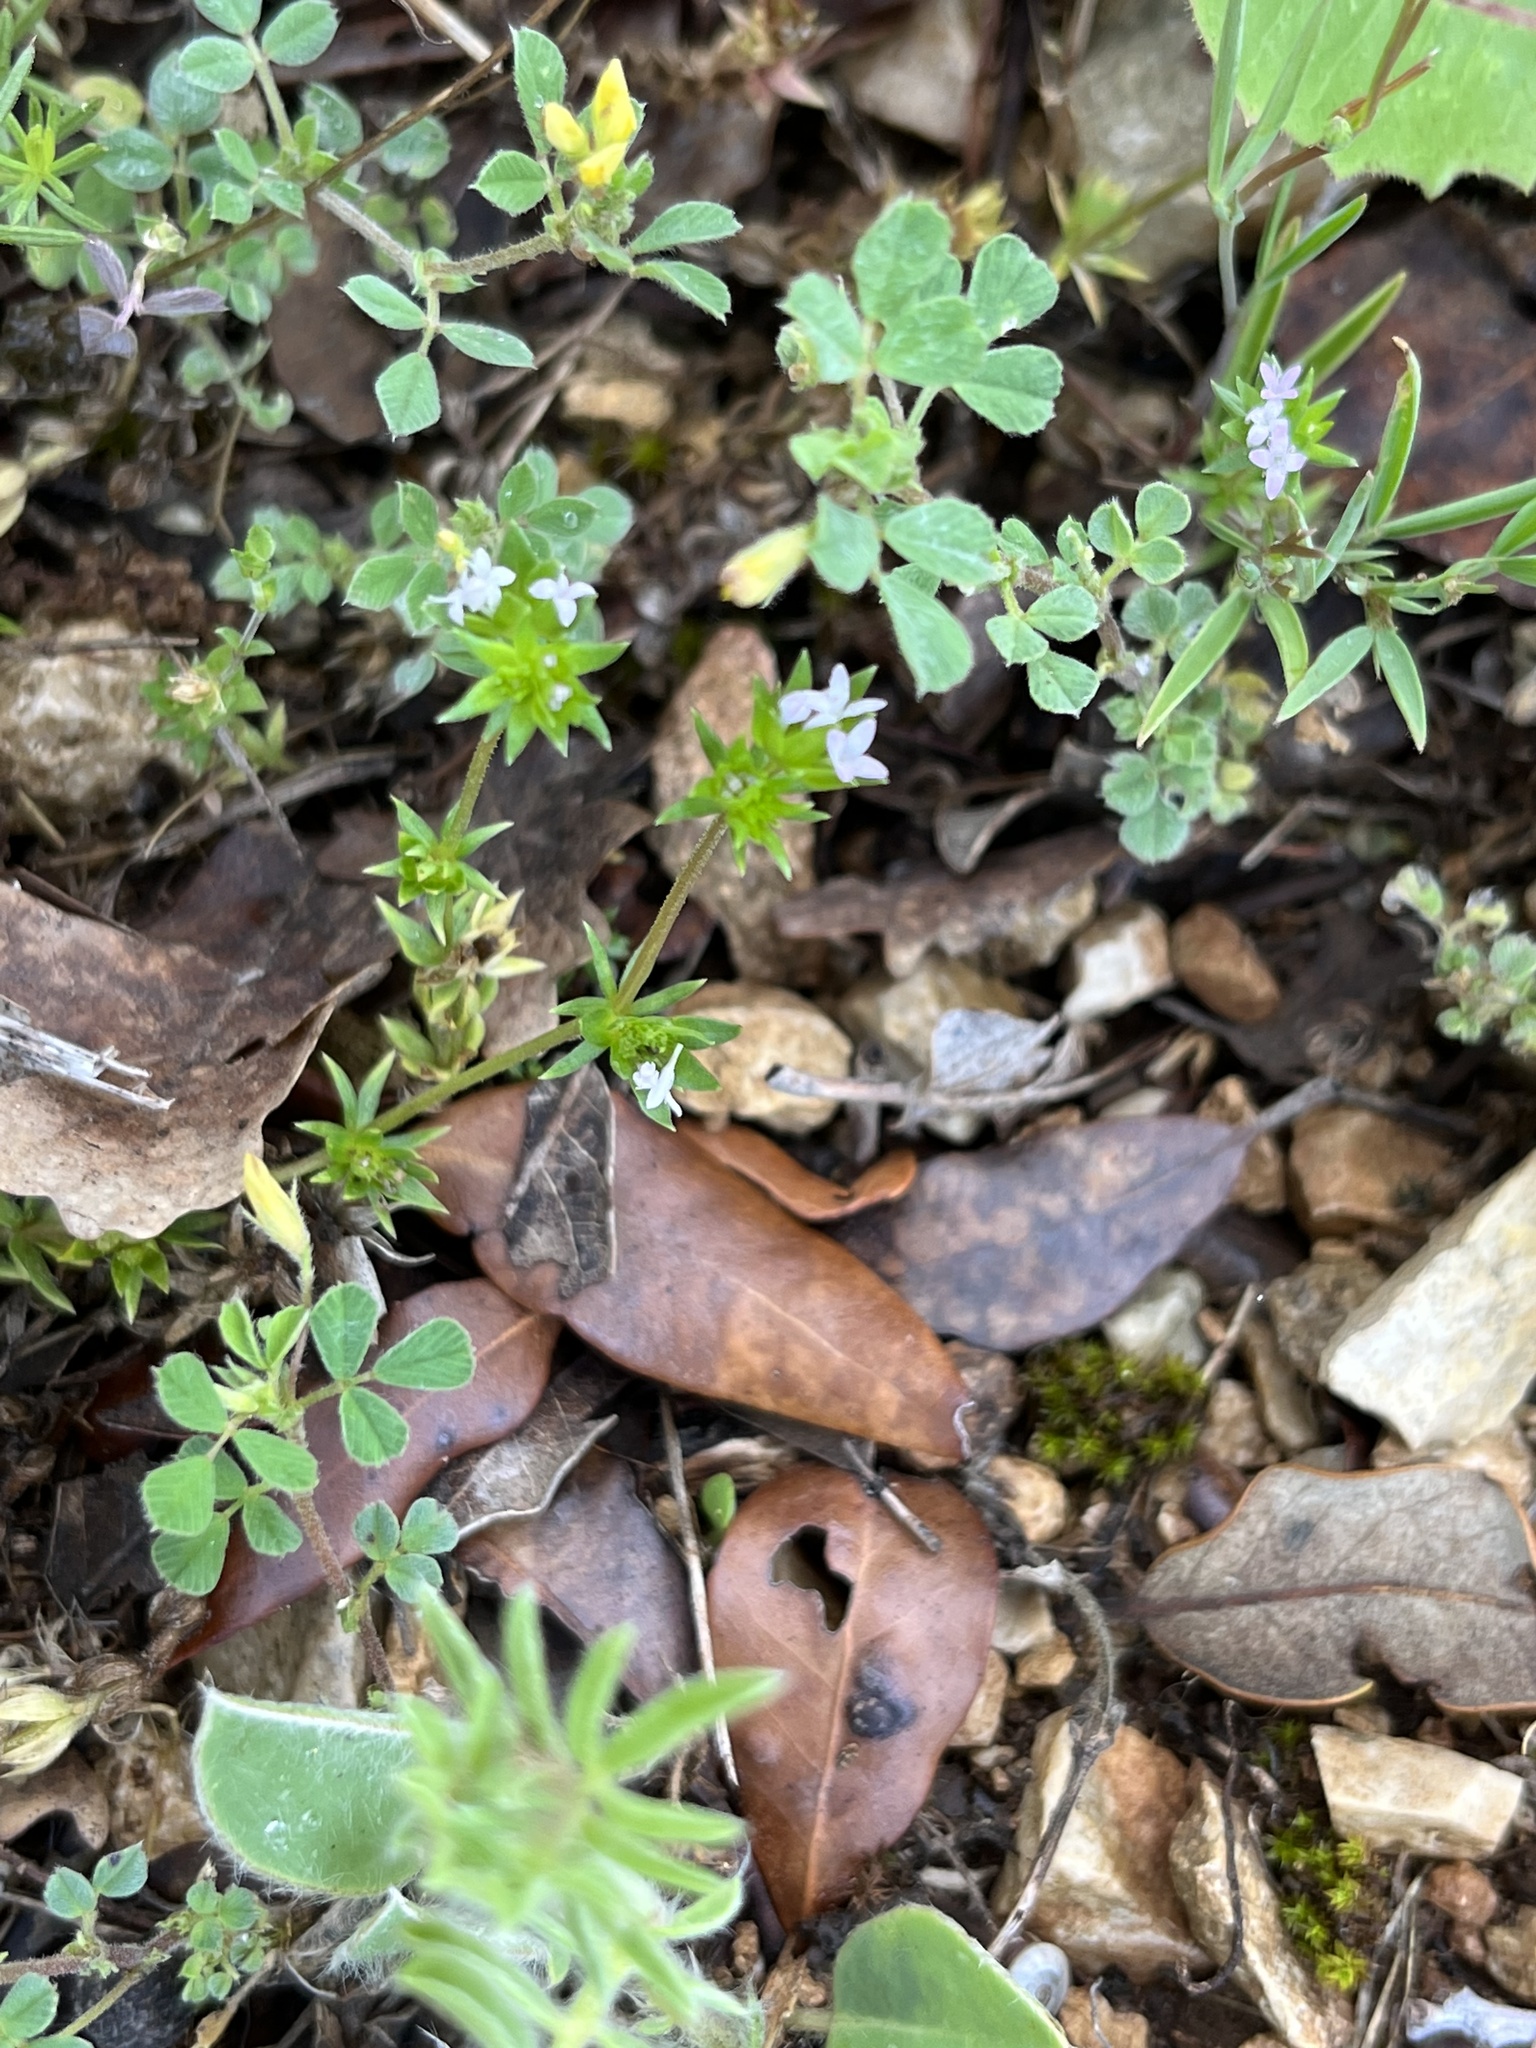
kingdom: Plantae
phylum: Tracheophyta
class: Magnoliopsida
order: Gentianales
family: Rubiaceae
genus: Sherardia
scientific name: Sherardia arvensis
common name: Field madder
